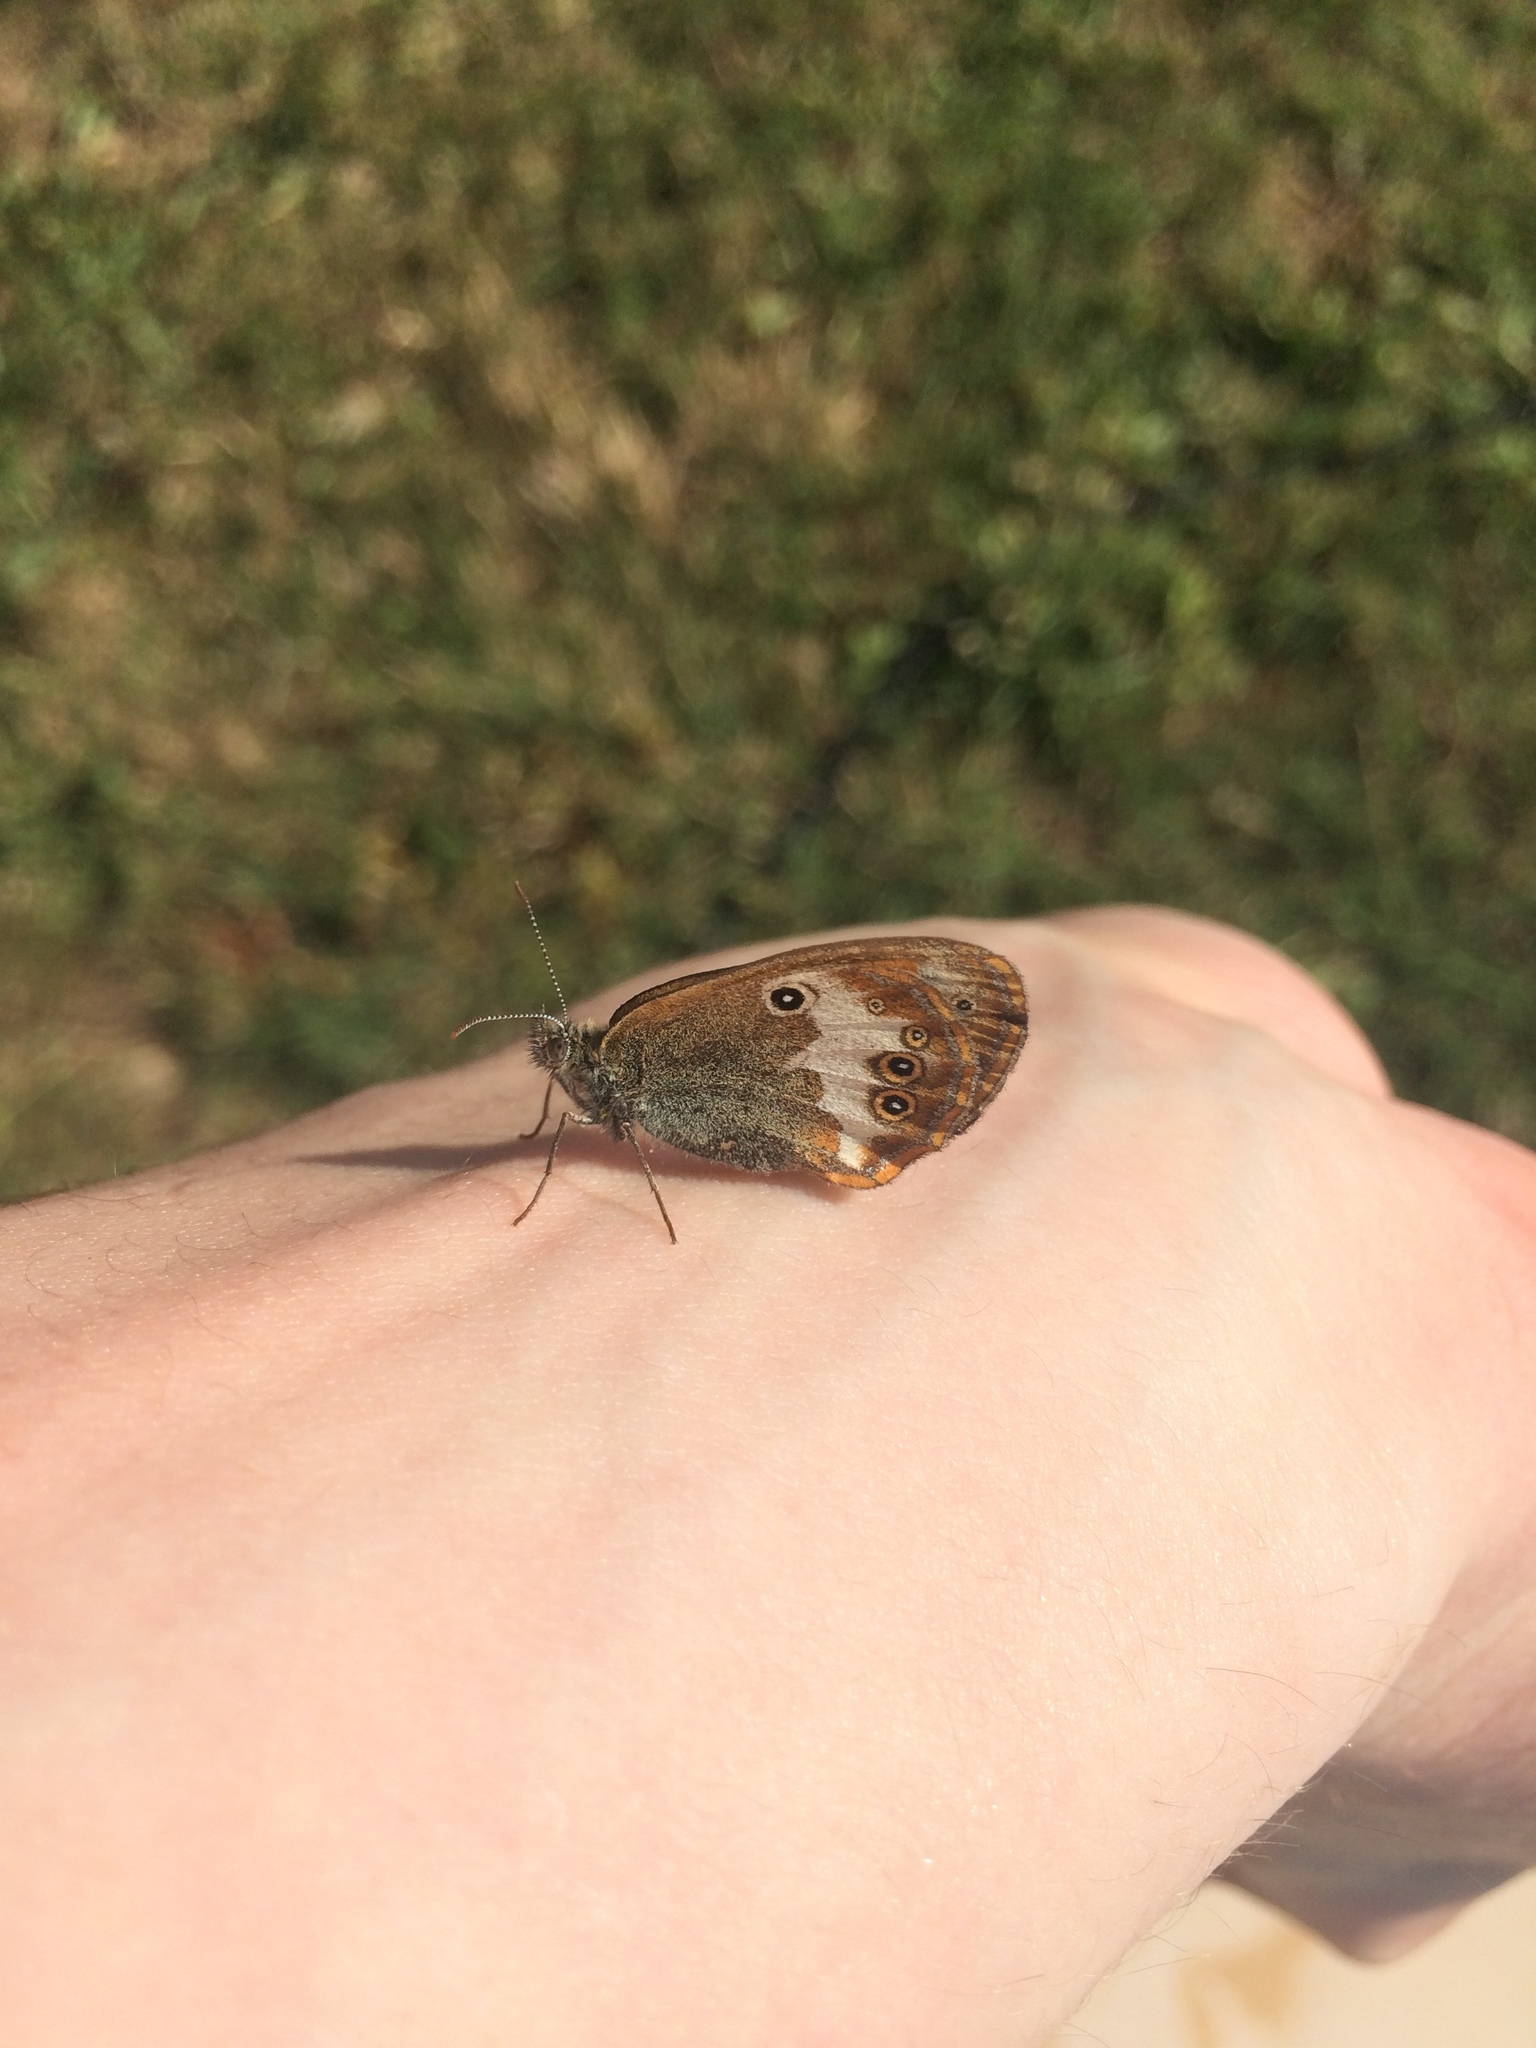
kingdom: Animalia
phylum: Arthropoda
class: Insecta
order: Lepidoptera
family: Nymphalidae
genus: Coenonympha
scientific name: Coenonympha arcania
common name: Pearly heath
